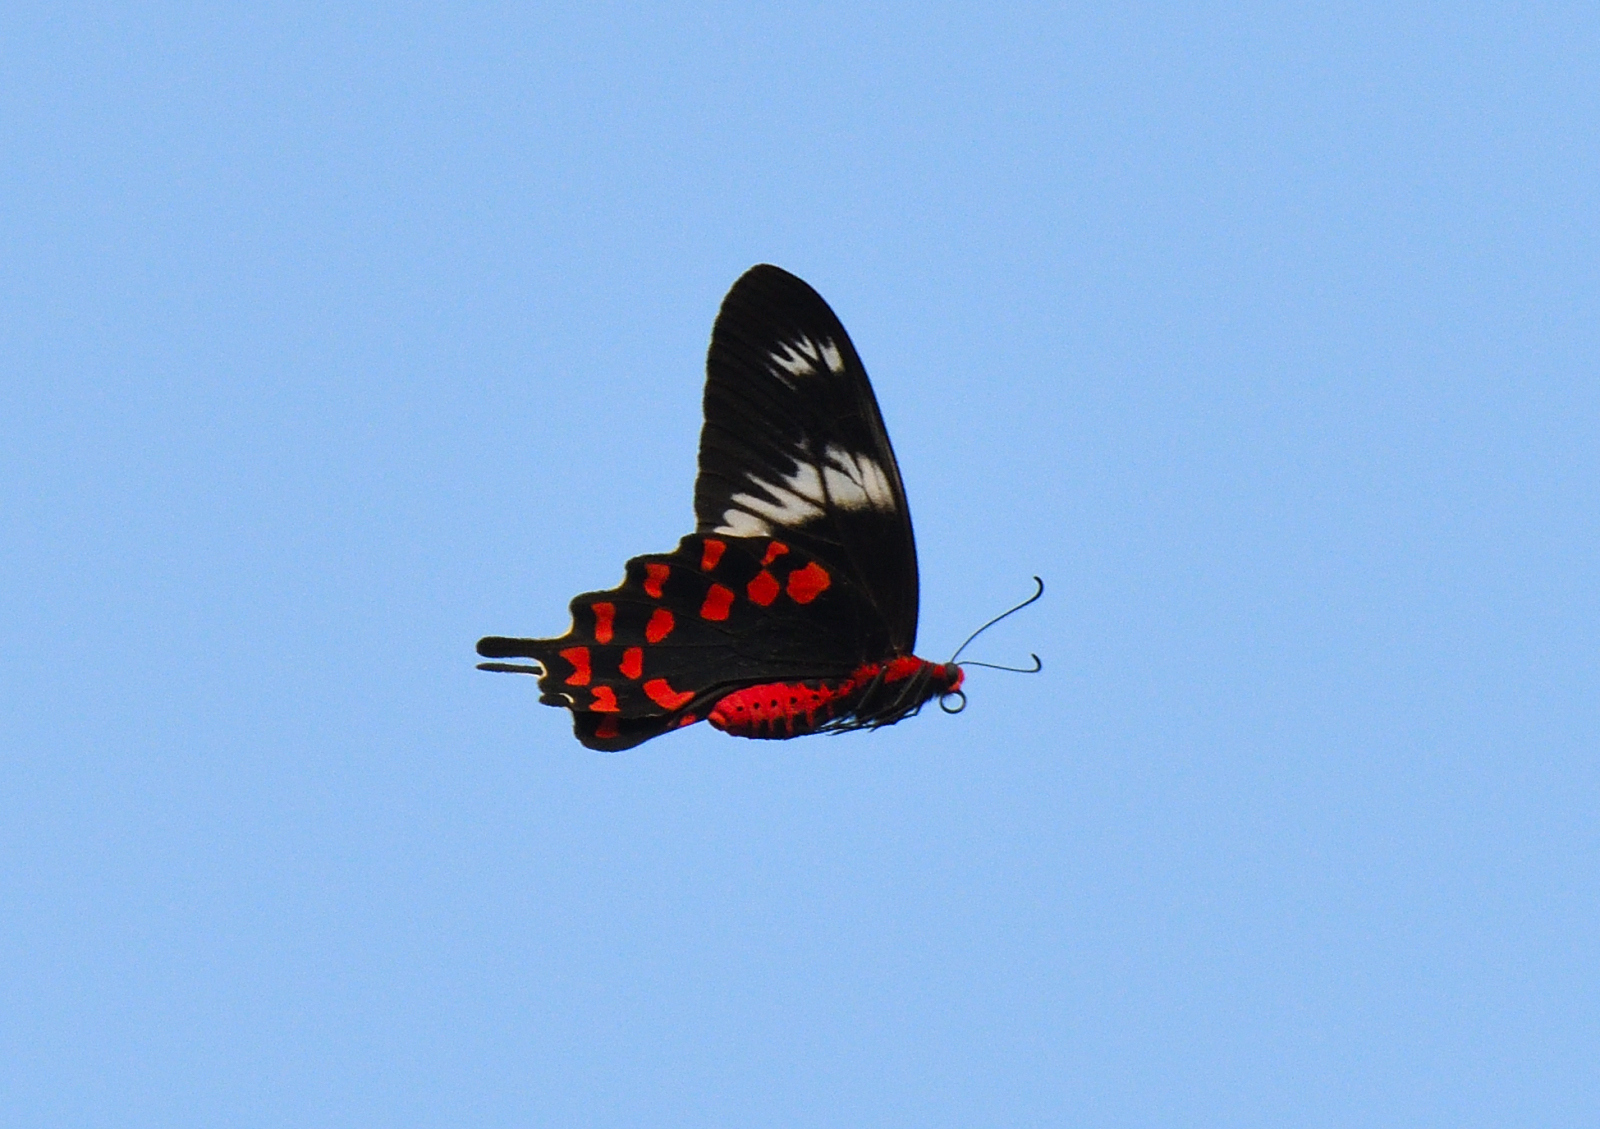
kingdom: Animalia
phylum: Arthropoda
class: Insecta
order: Lepidoptera
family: Papilionidae
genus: Pachliopta
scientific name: Pachliopta hector
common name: Crimson rose
